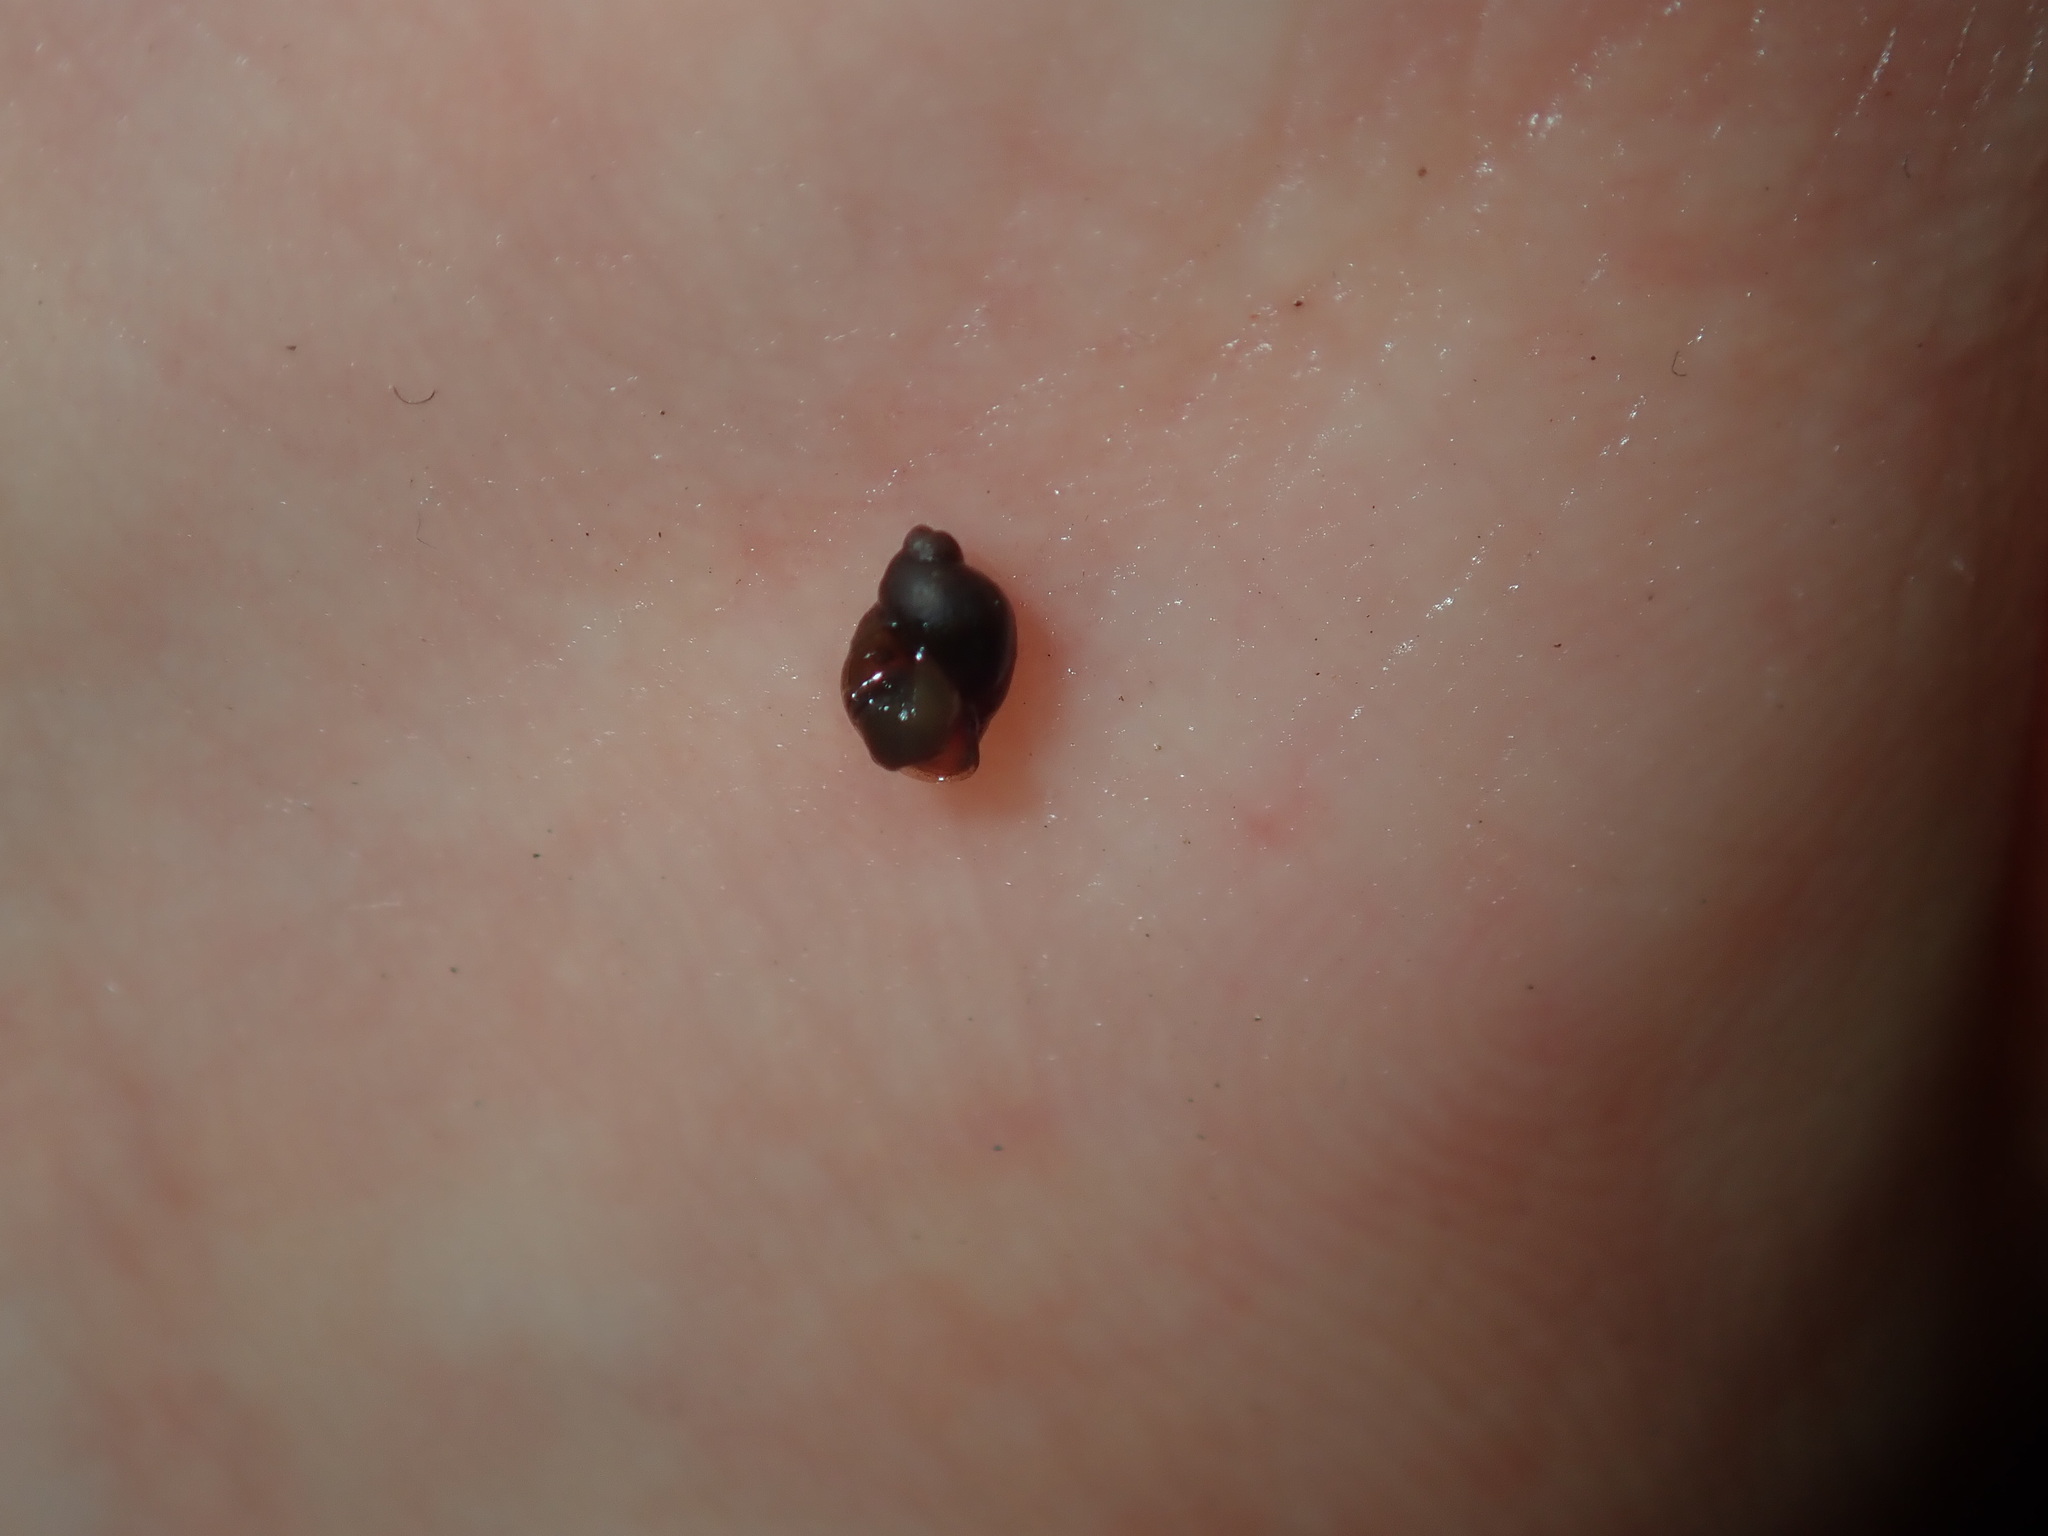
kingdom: Animalia
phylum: Mollusca
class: Gastropoda
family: Planorbidae
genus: Isidorella
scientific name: Isidorella hainesii
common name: Haine’s pouch snail
